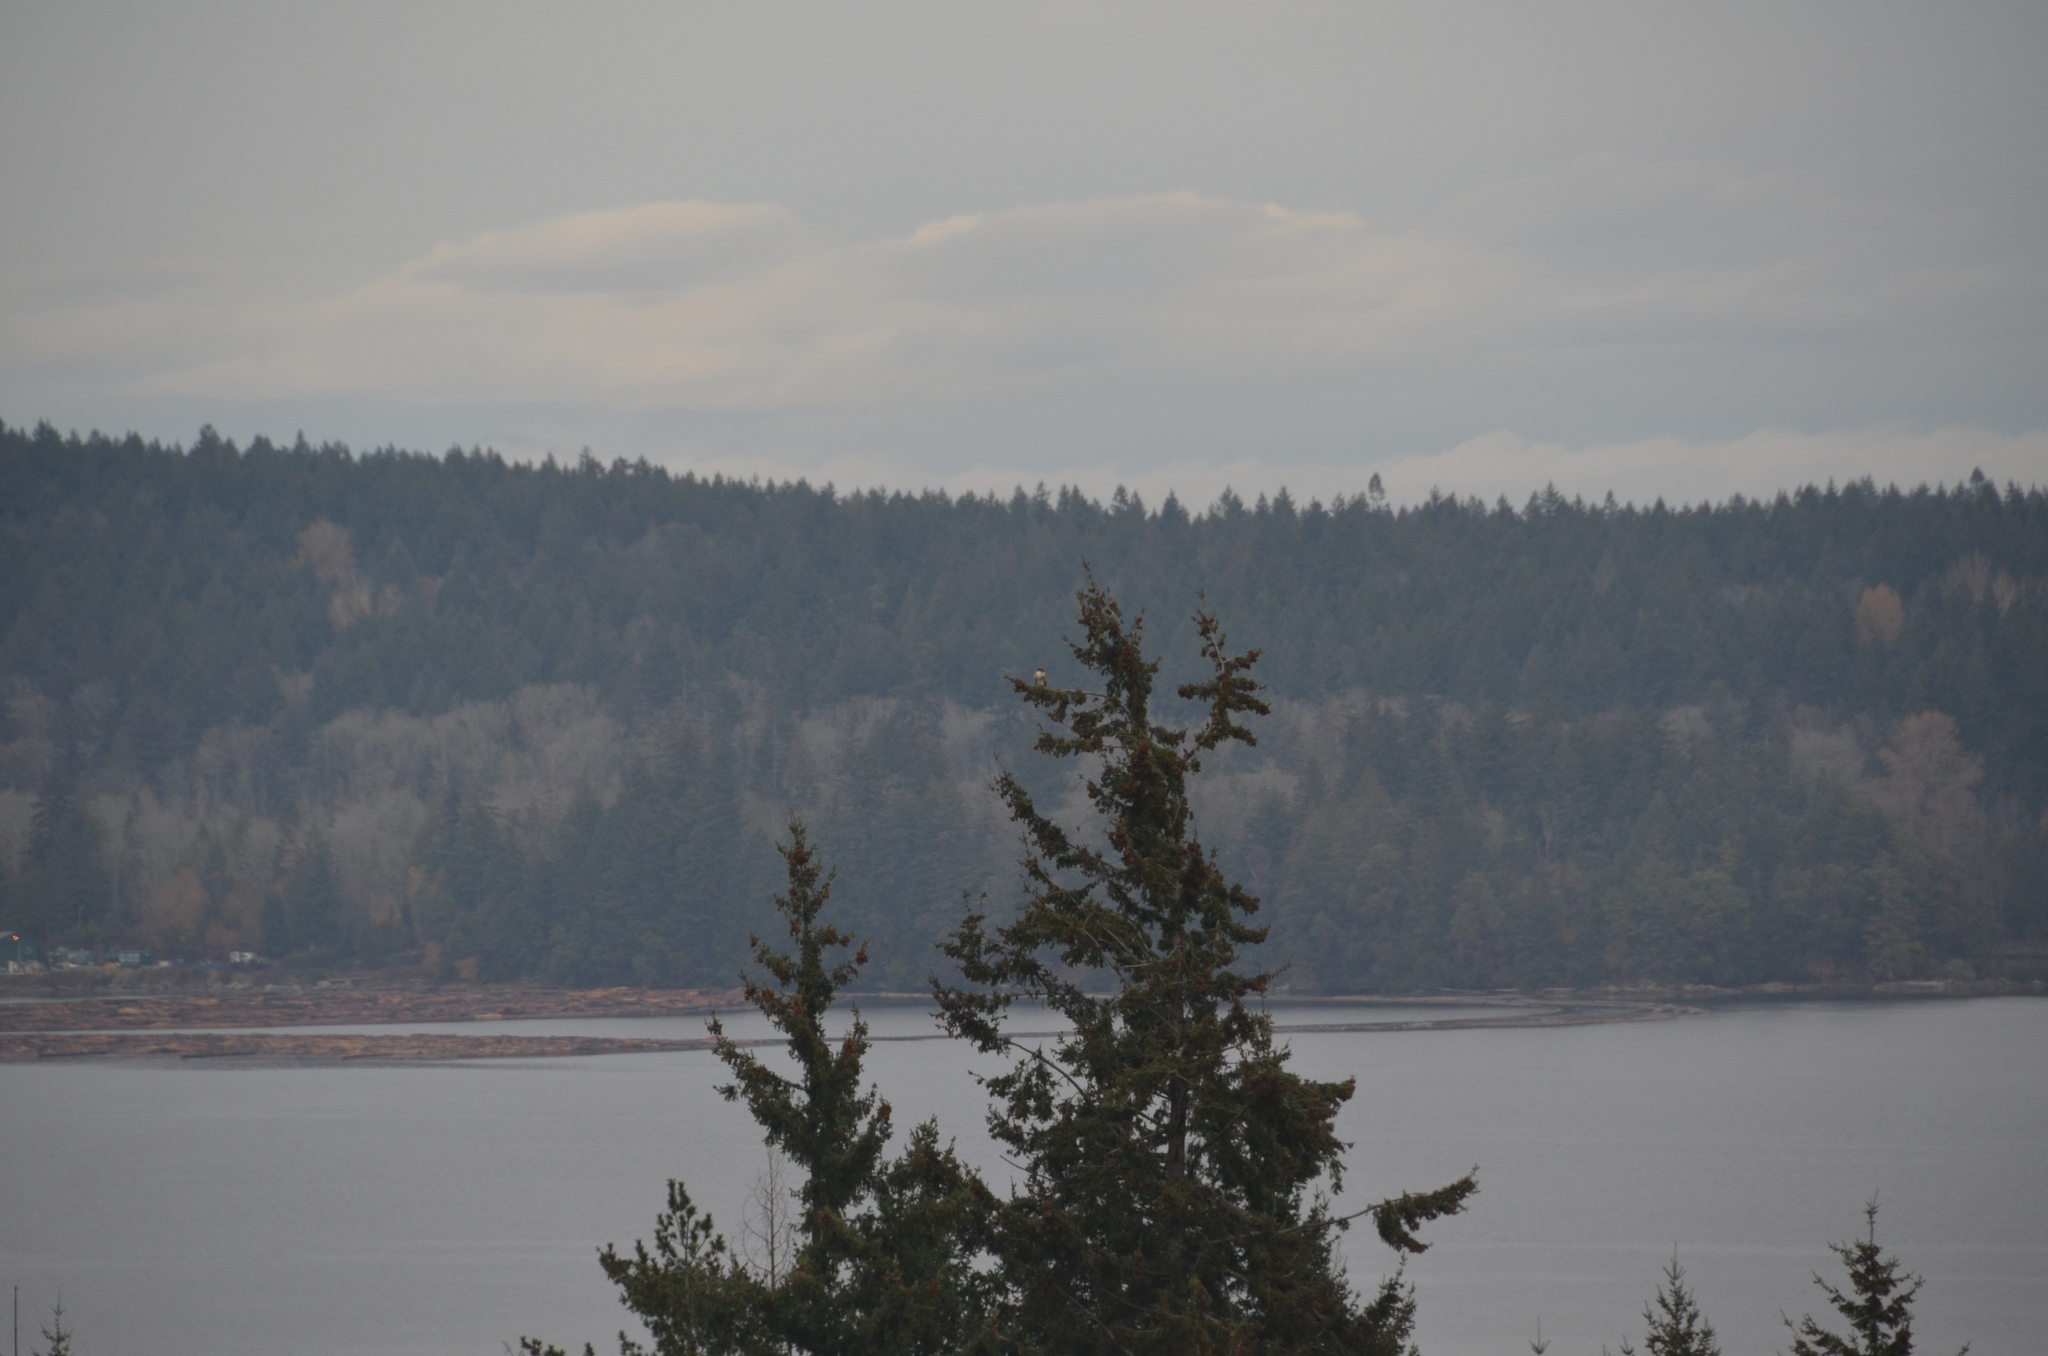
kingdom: Animalia
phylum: Chordata
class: Aves
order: Accipitriformes
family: Accipitridae
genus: Buteo
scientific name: Buteo jamaicensis
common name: Red-tailed hawk
